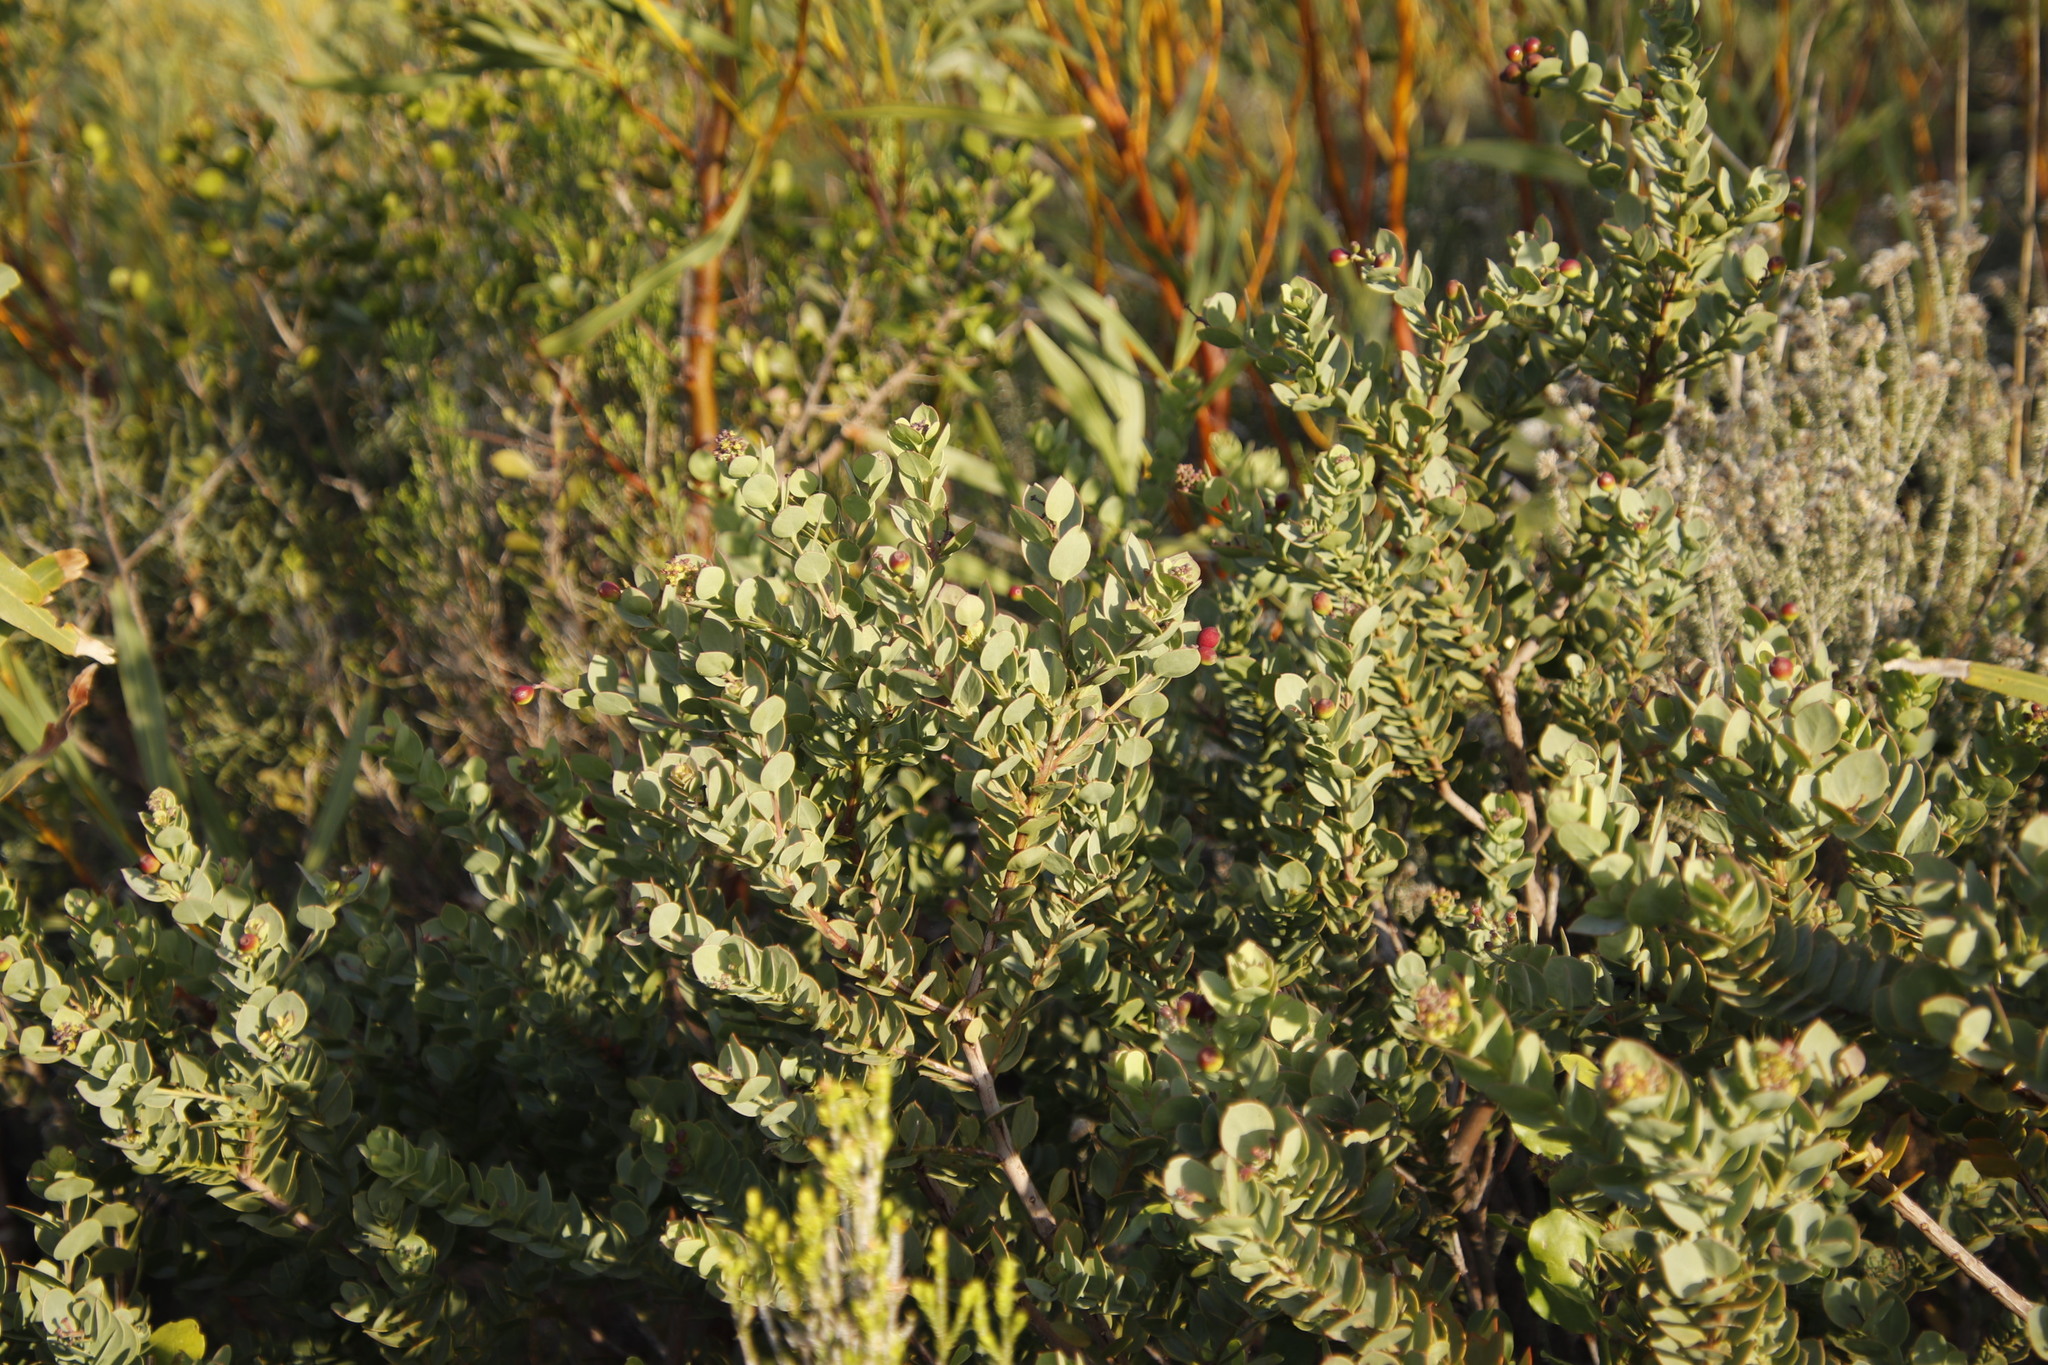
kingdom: Plantae
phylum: Tracheophyta
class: Magnoliopsida
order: Santalales
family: Santalaceae
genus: Osyris
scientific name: Osyris compressa
